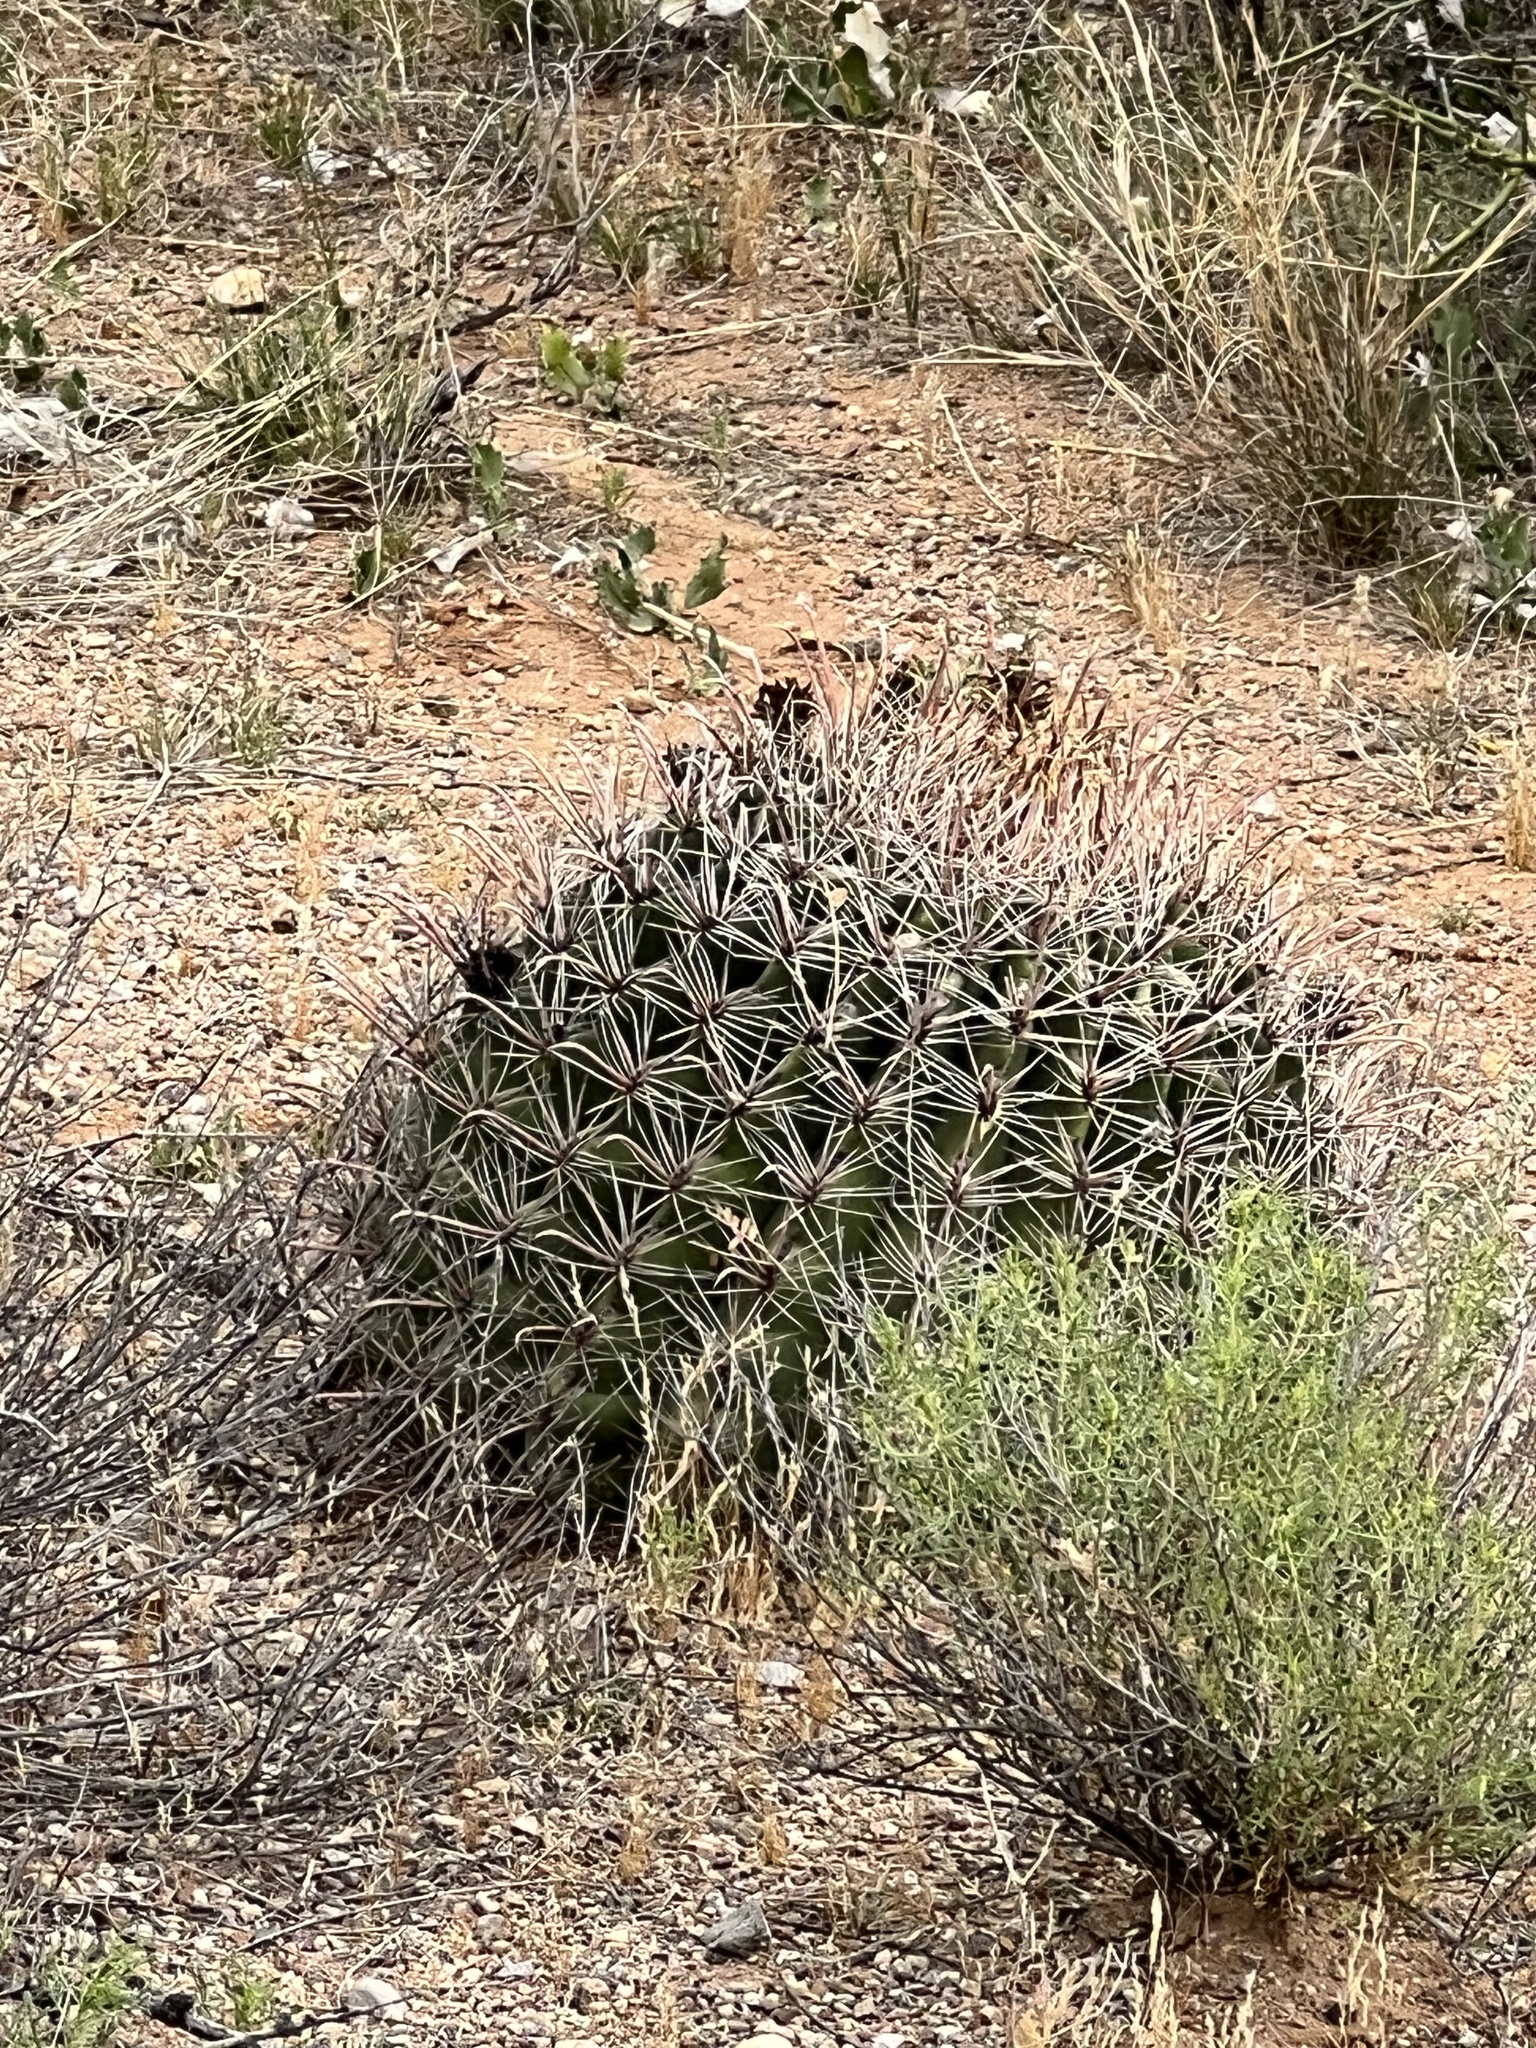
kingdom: Plantae
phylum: Tracheophyta
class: Magnoliopsida
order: Caryophyllales
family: Cactaceae
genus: Ferocactus
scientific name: Ferocactus wislizeni
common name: Candy barrel cactus
